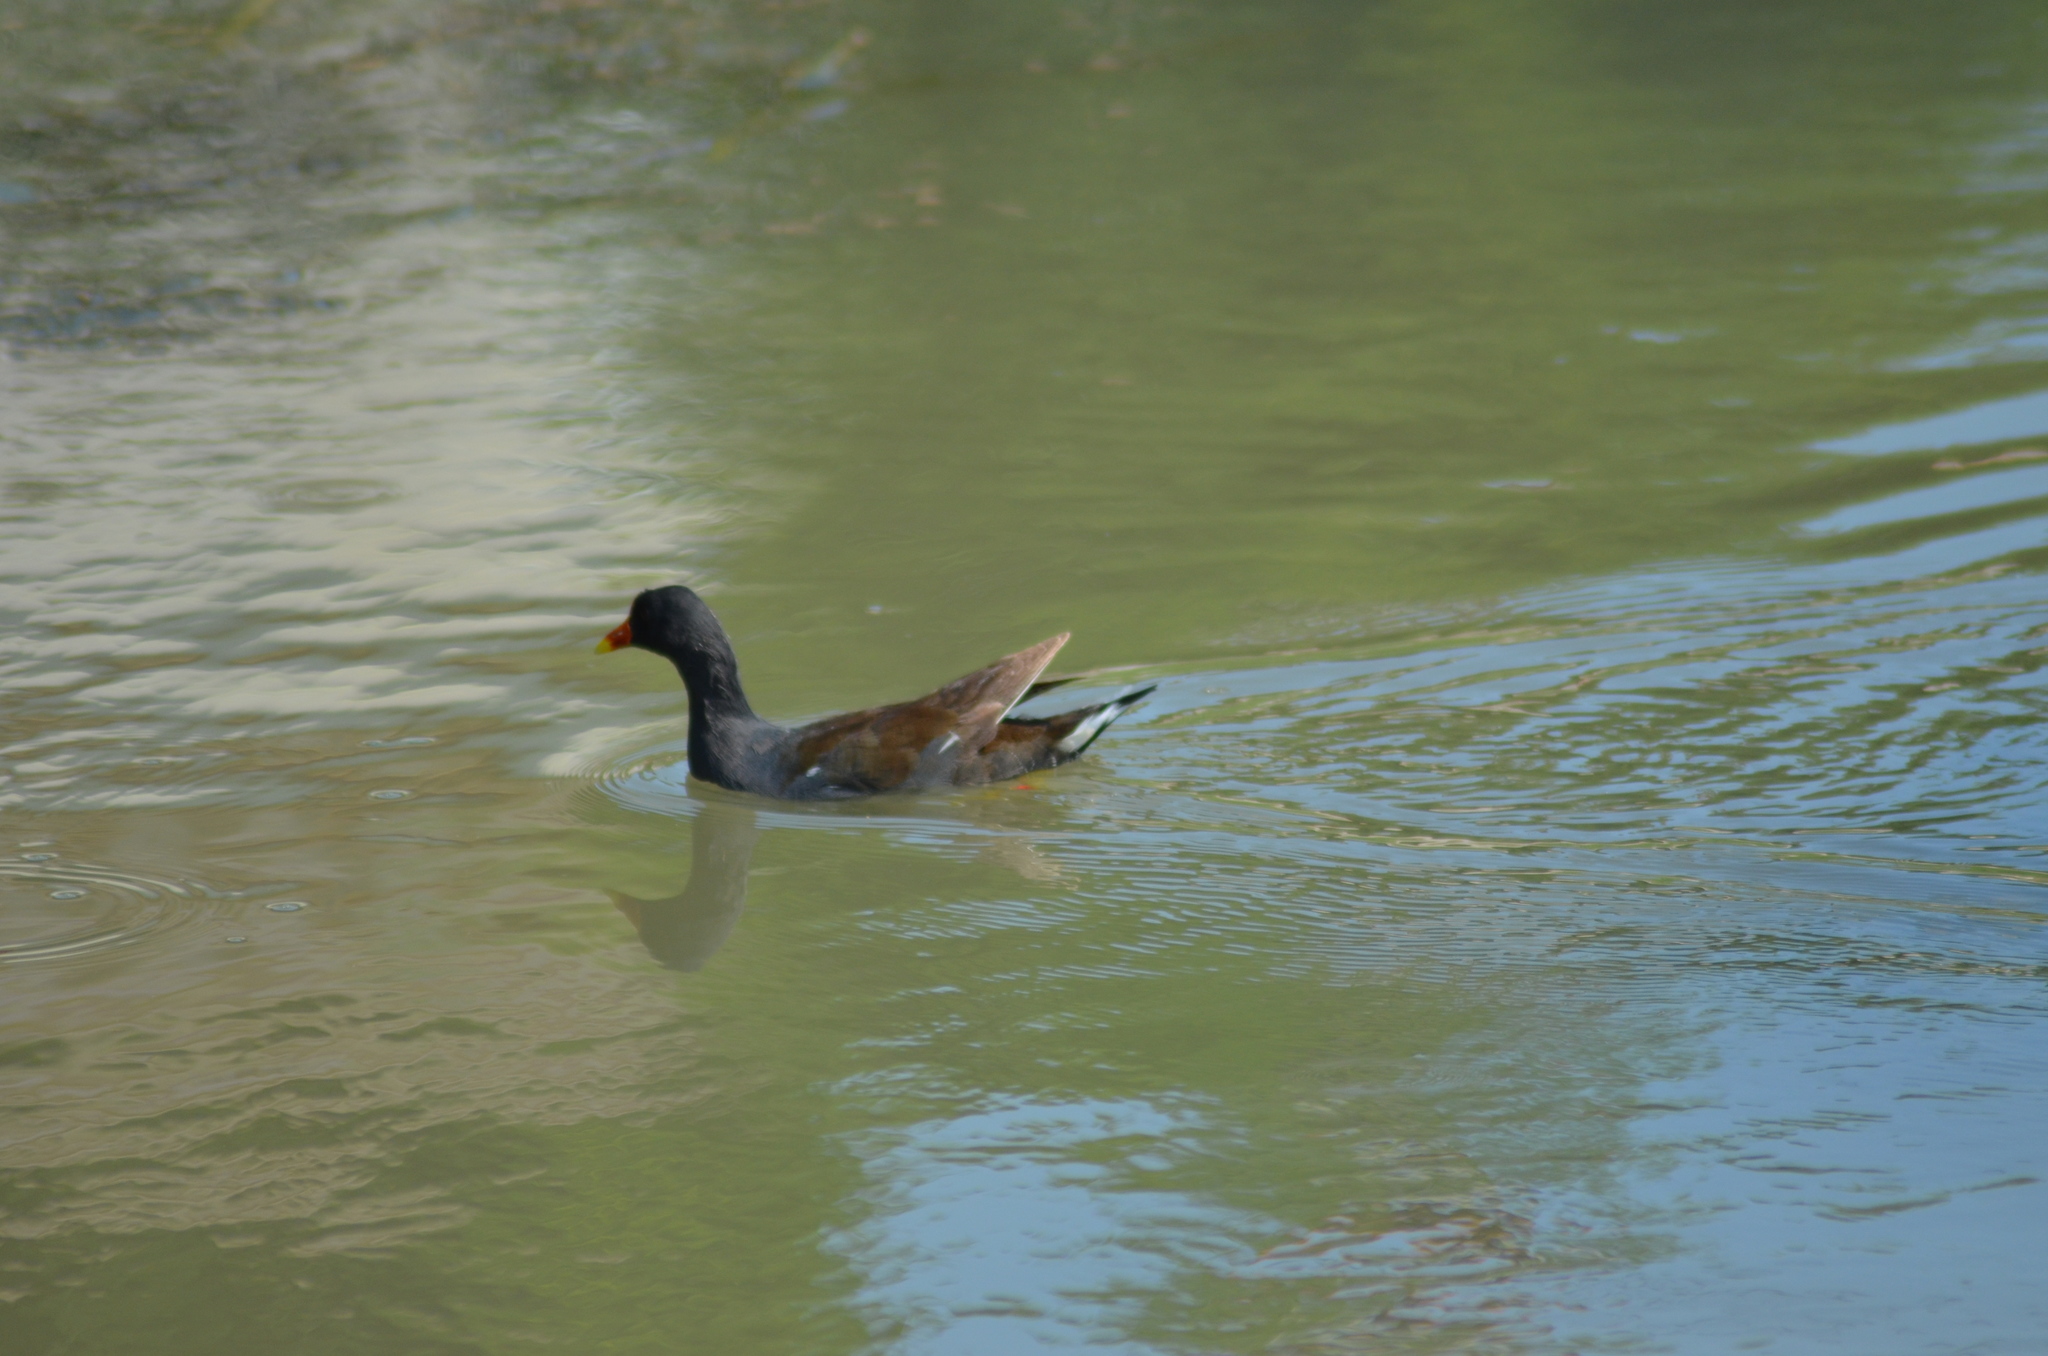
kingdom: Animalia
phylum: Chordata
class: Aves
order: Gruiformes
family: Rallidae
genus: Gallinula
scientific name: Gallinula chloropus
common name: Common moorhen
